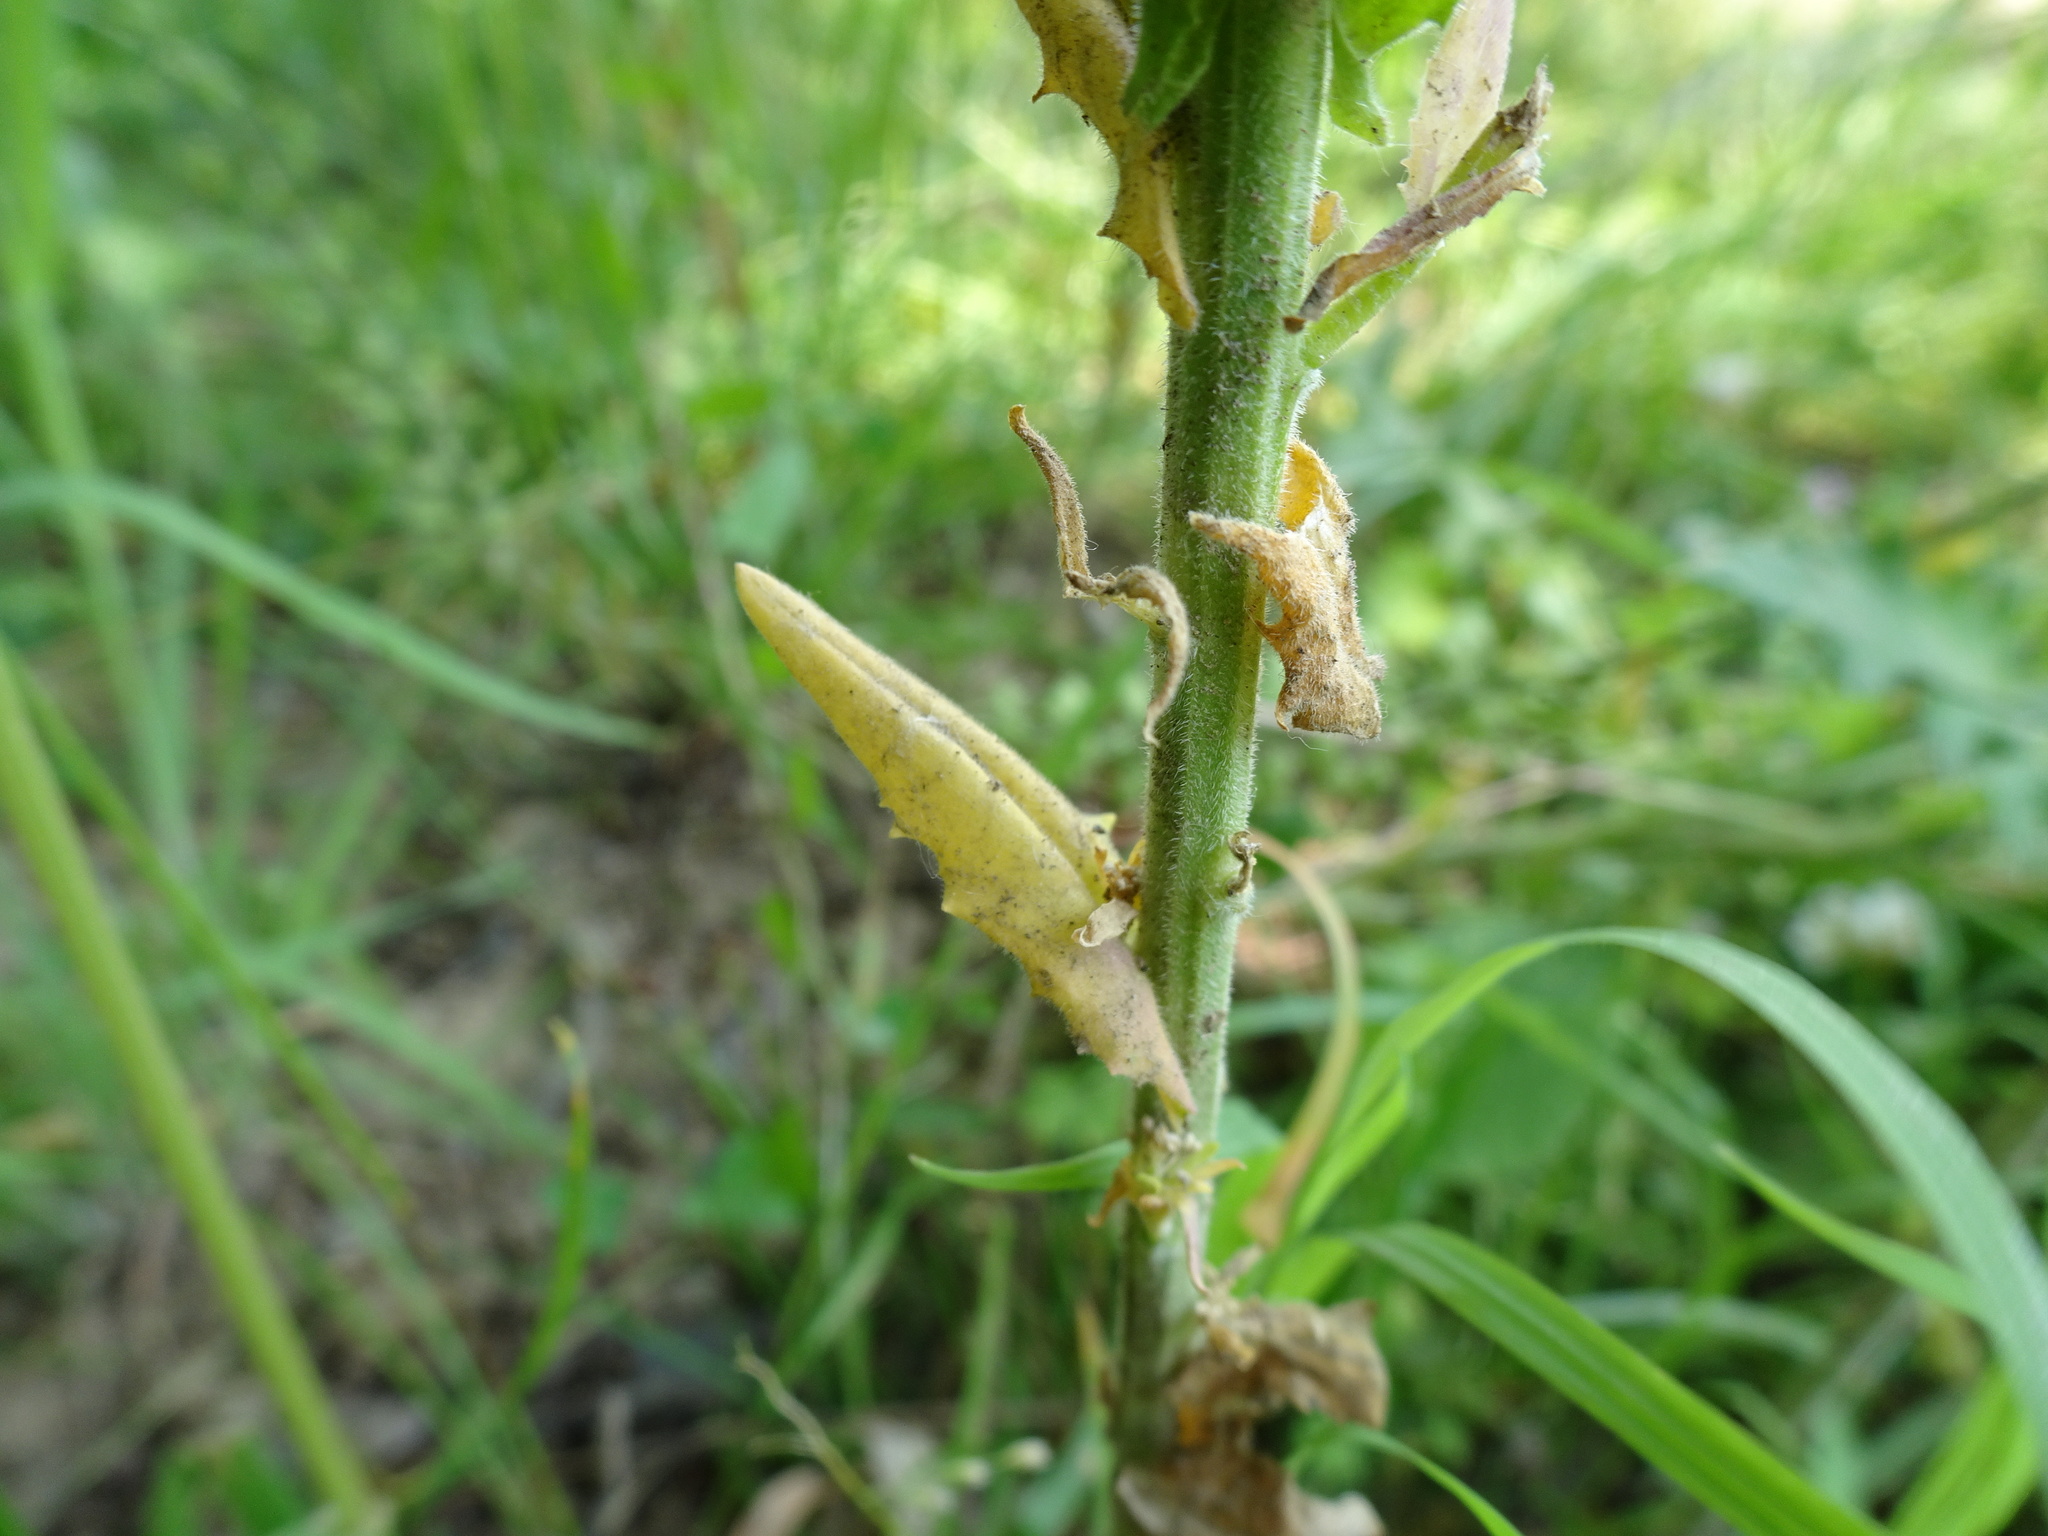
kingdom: Plantae
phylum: Tracheophyta
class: Magnoliopsida
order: Brassicales
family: Brassicaceae
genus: Lepidium
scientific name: Lepidium campestre
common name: Field pepperwort
